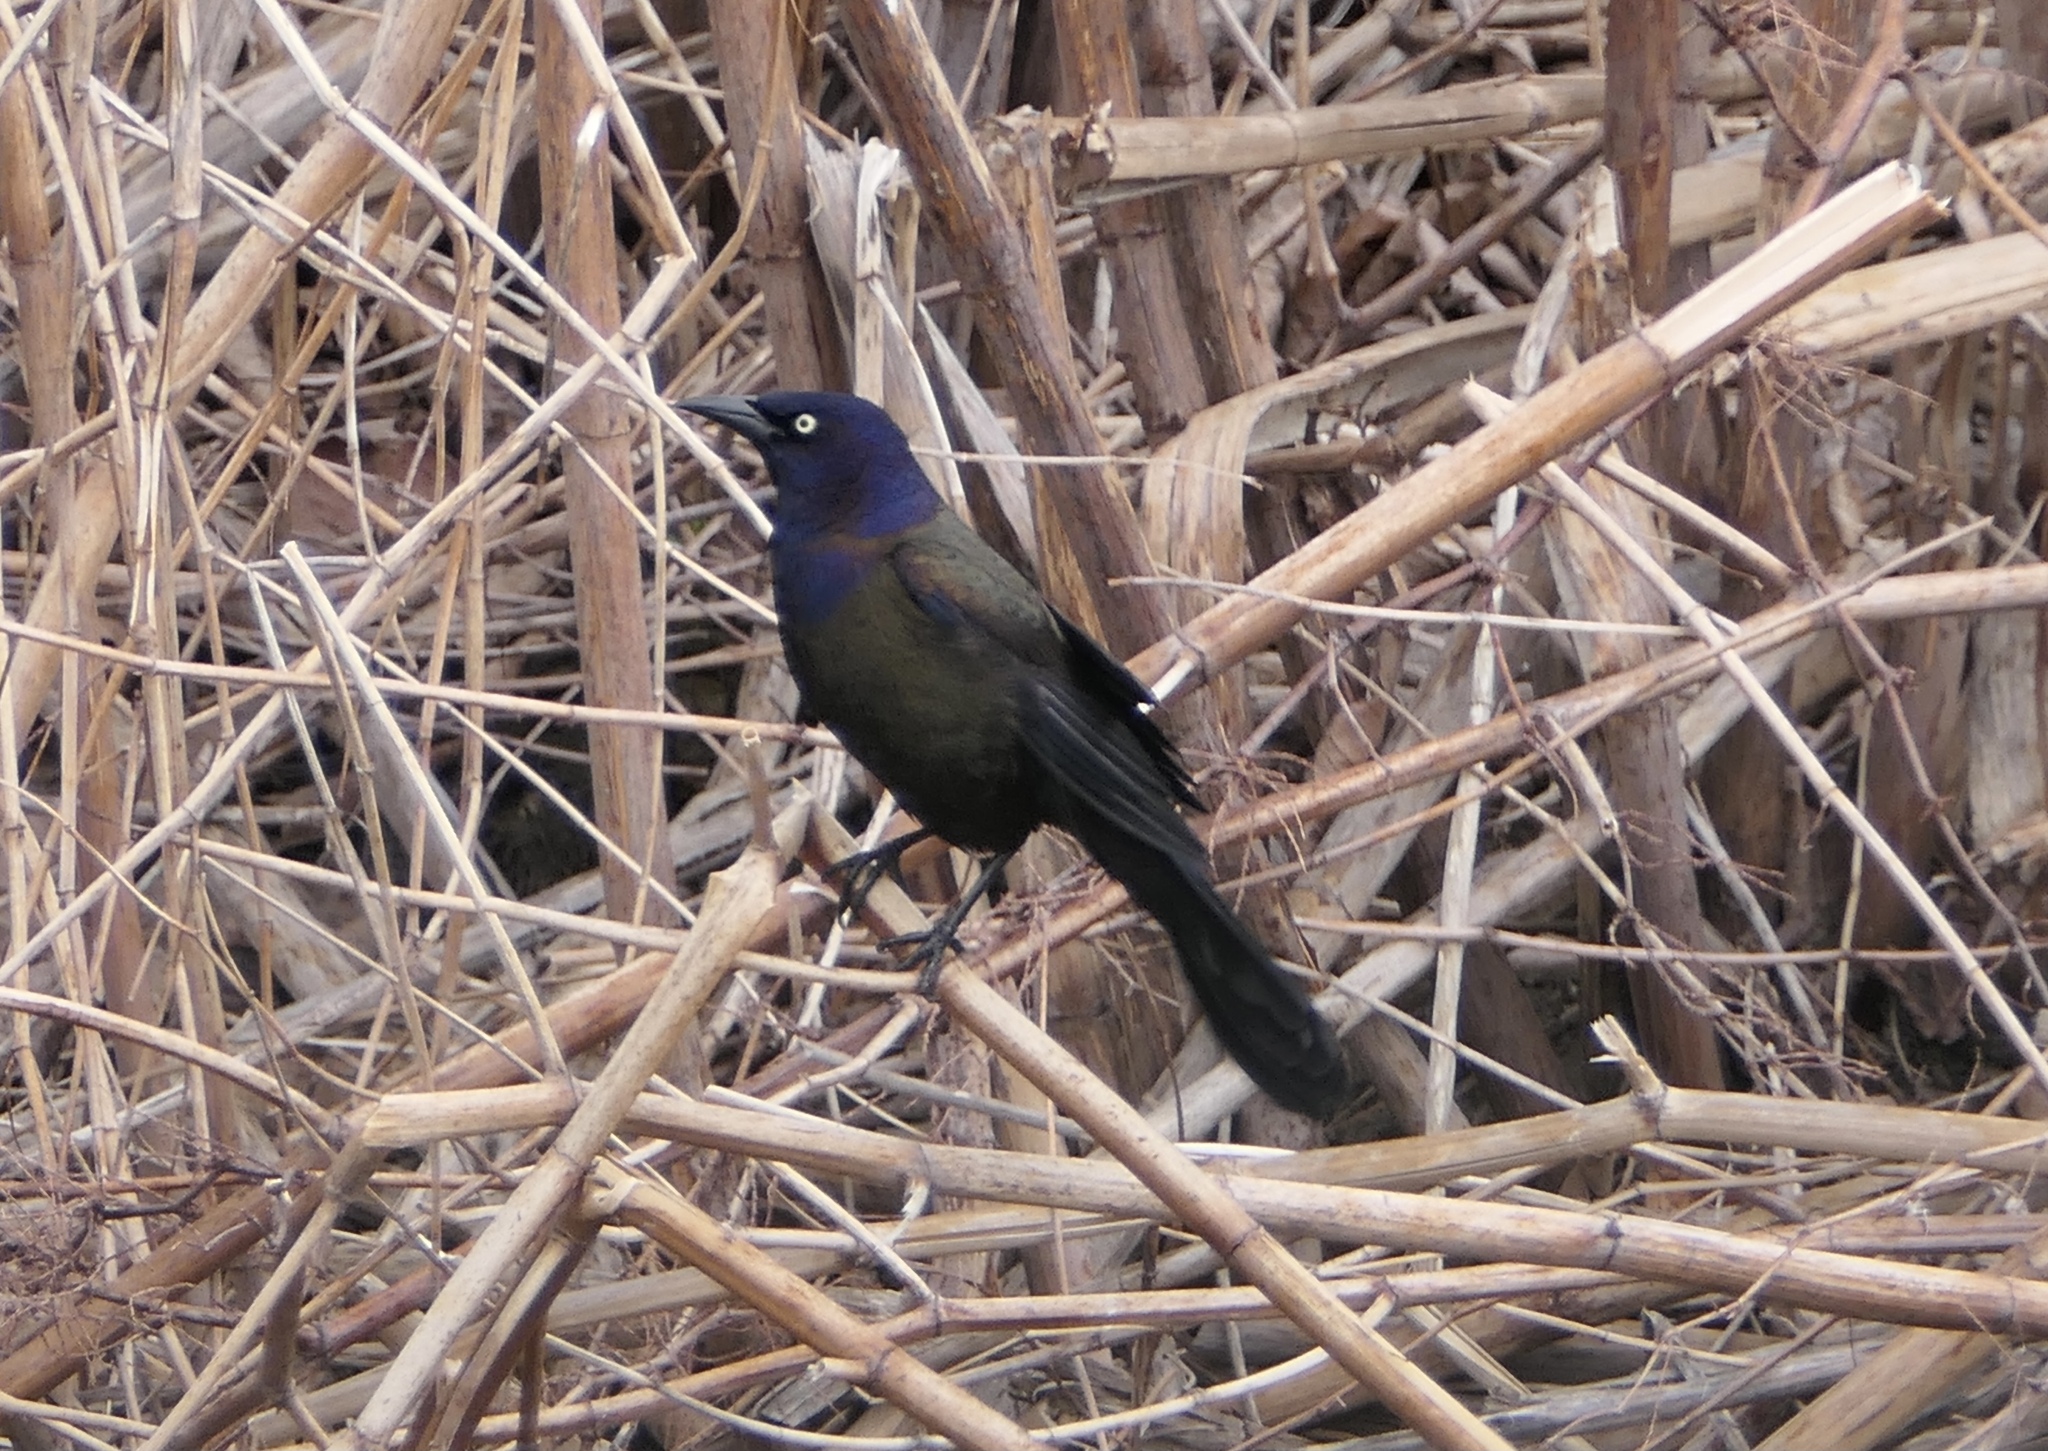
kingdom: Animalia
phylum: Chordata
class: Aves
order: Passeriformes
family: Icteridae
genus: Quiscalus
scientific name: Quiscalus quiscula
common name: Common grackle
